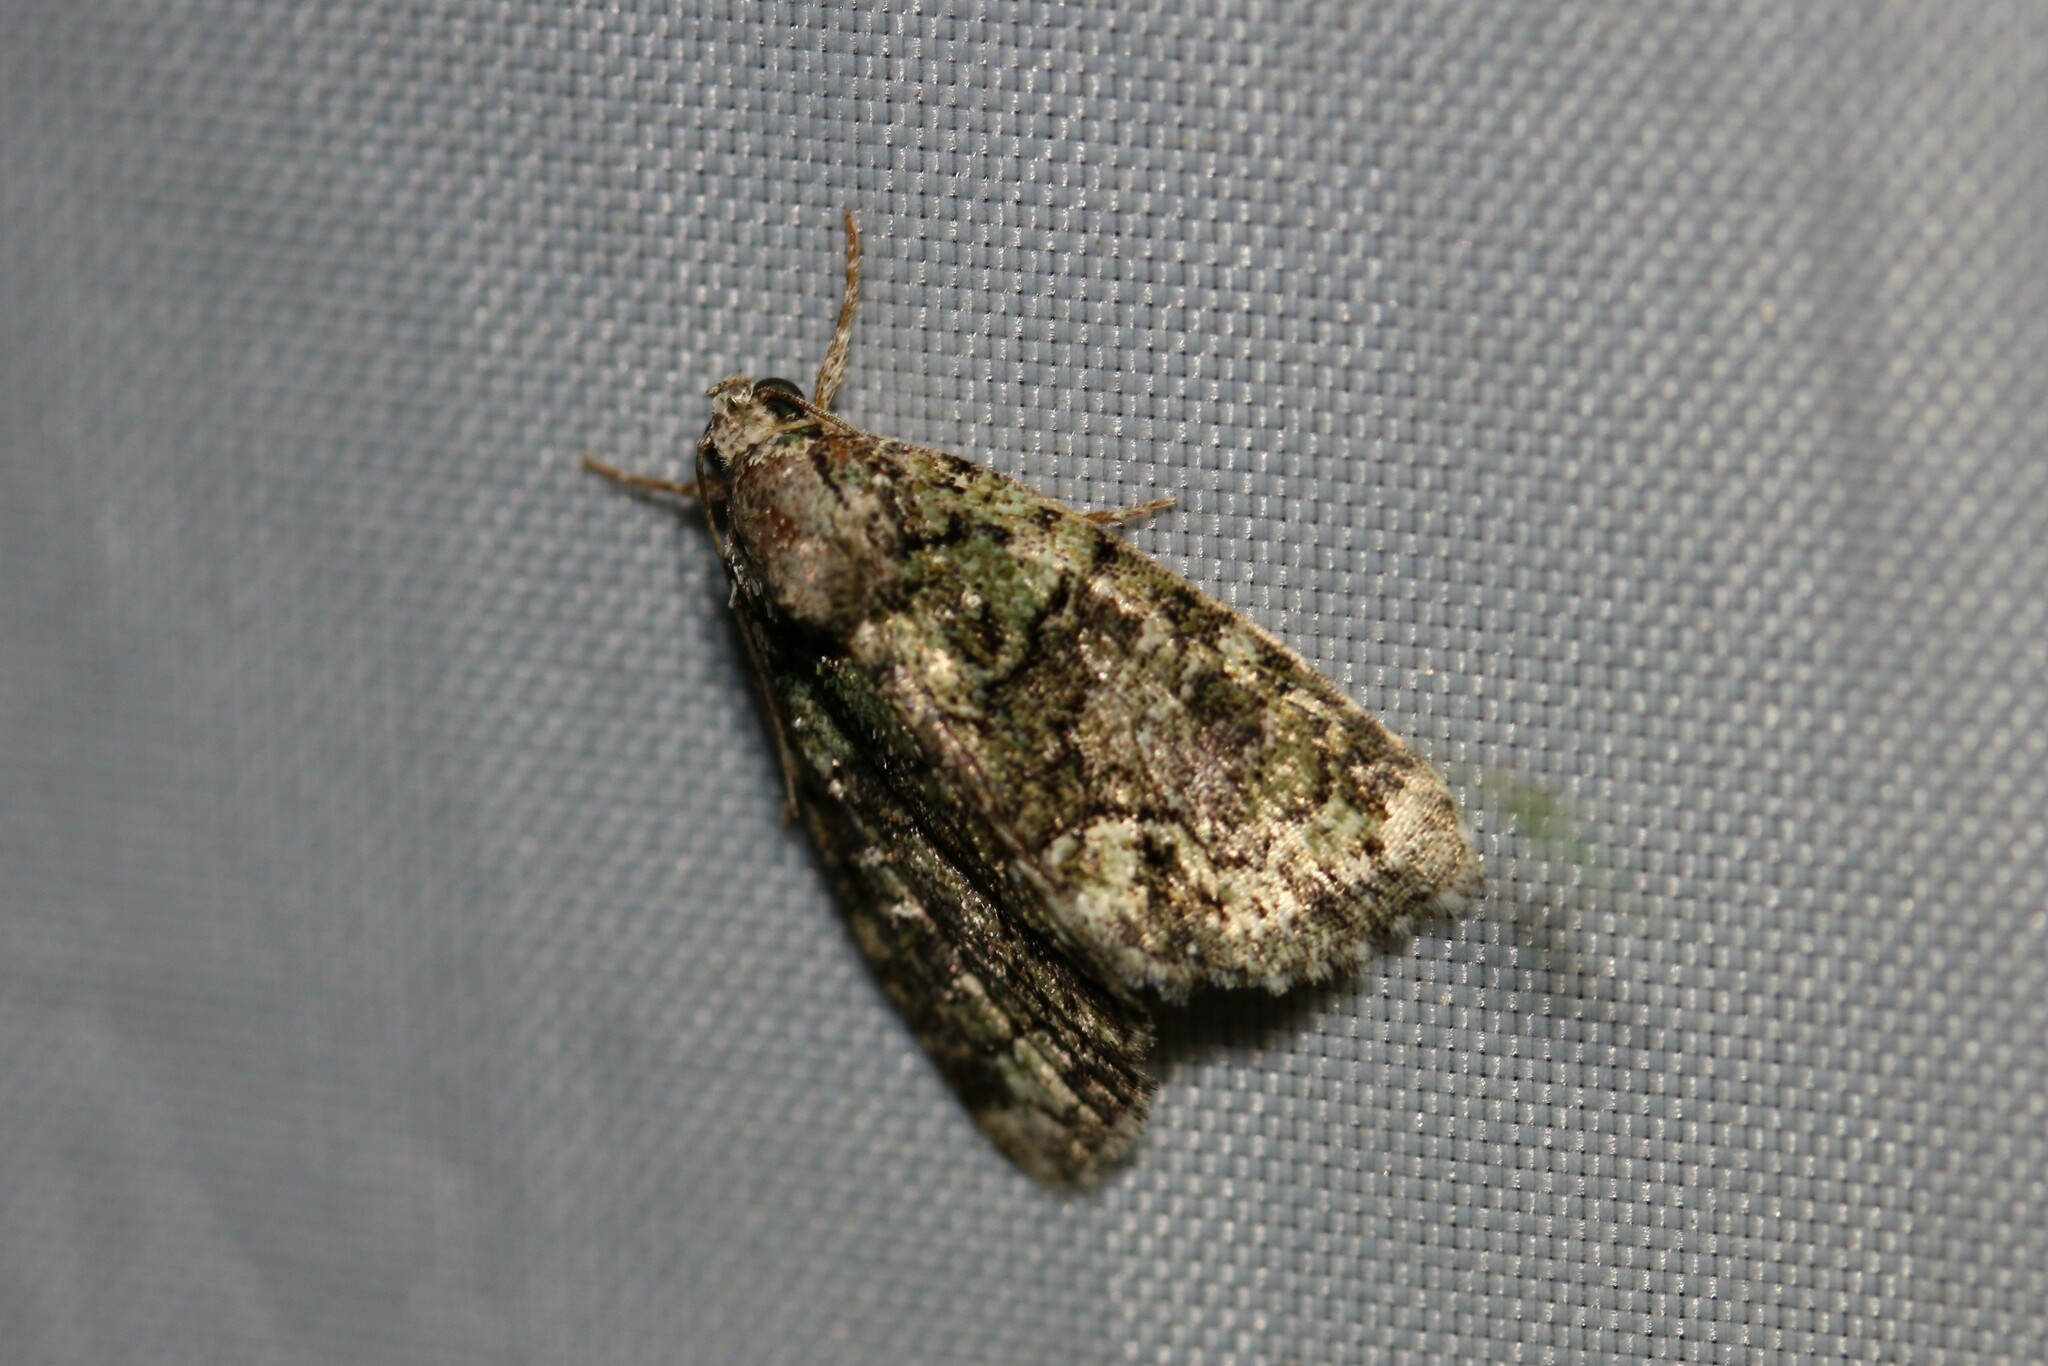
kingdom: Animalia
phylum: Arthropoda
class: Insecta
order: Lepidoptera
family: Noctuidae
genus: Cryphia
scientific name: Cryphia algae
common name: Tree-lichen beauty
